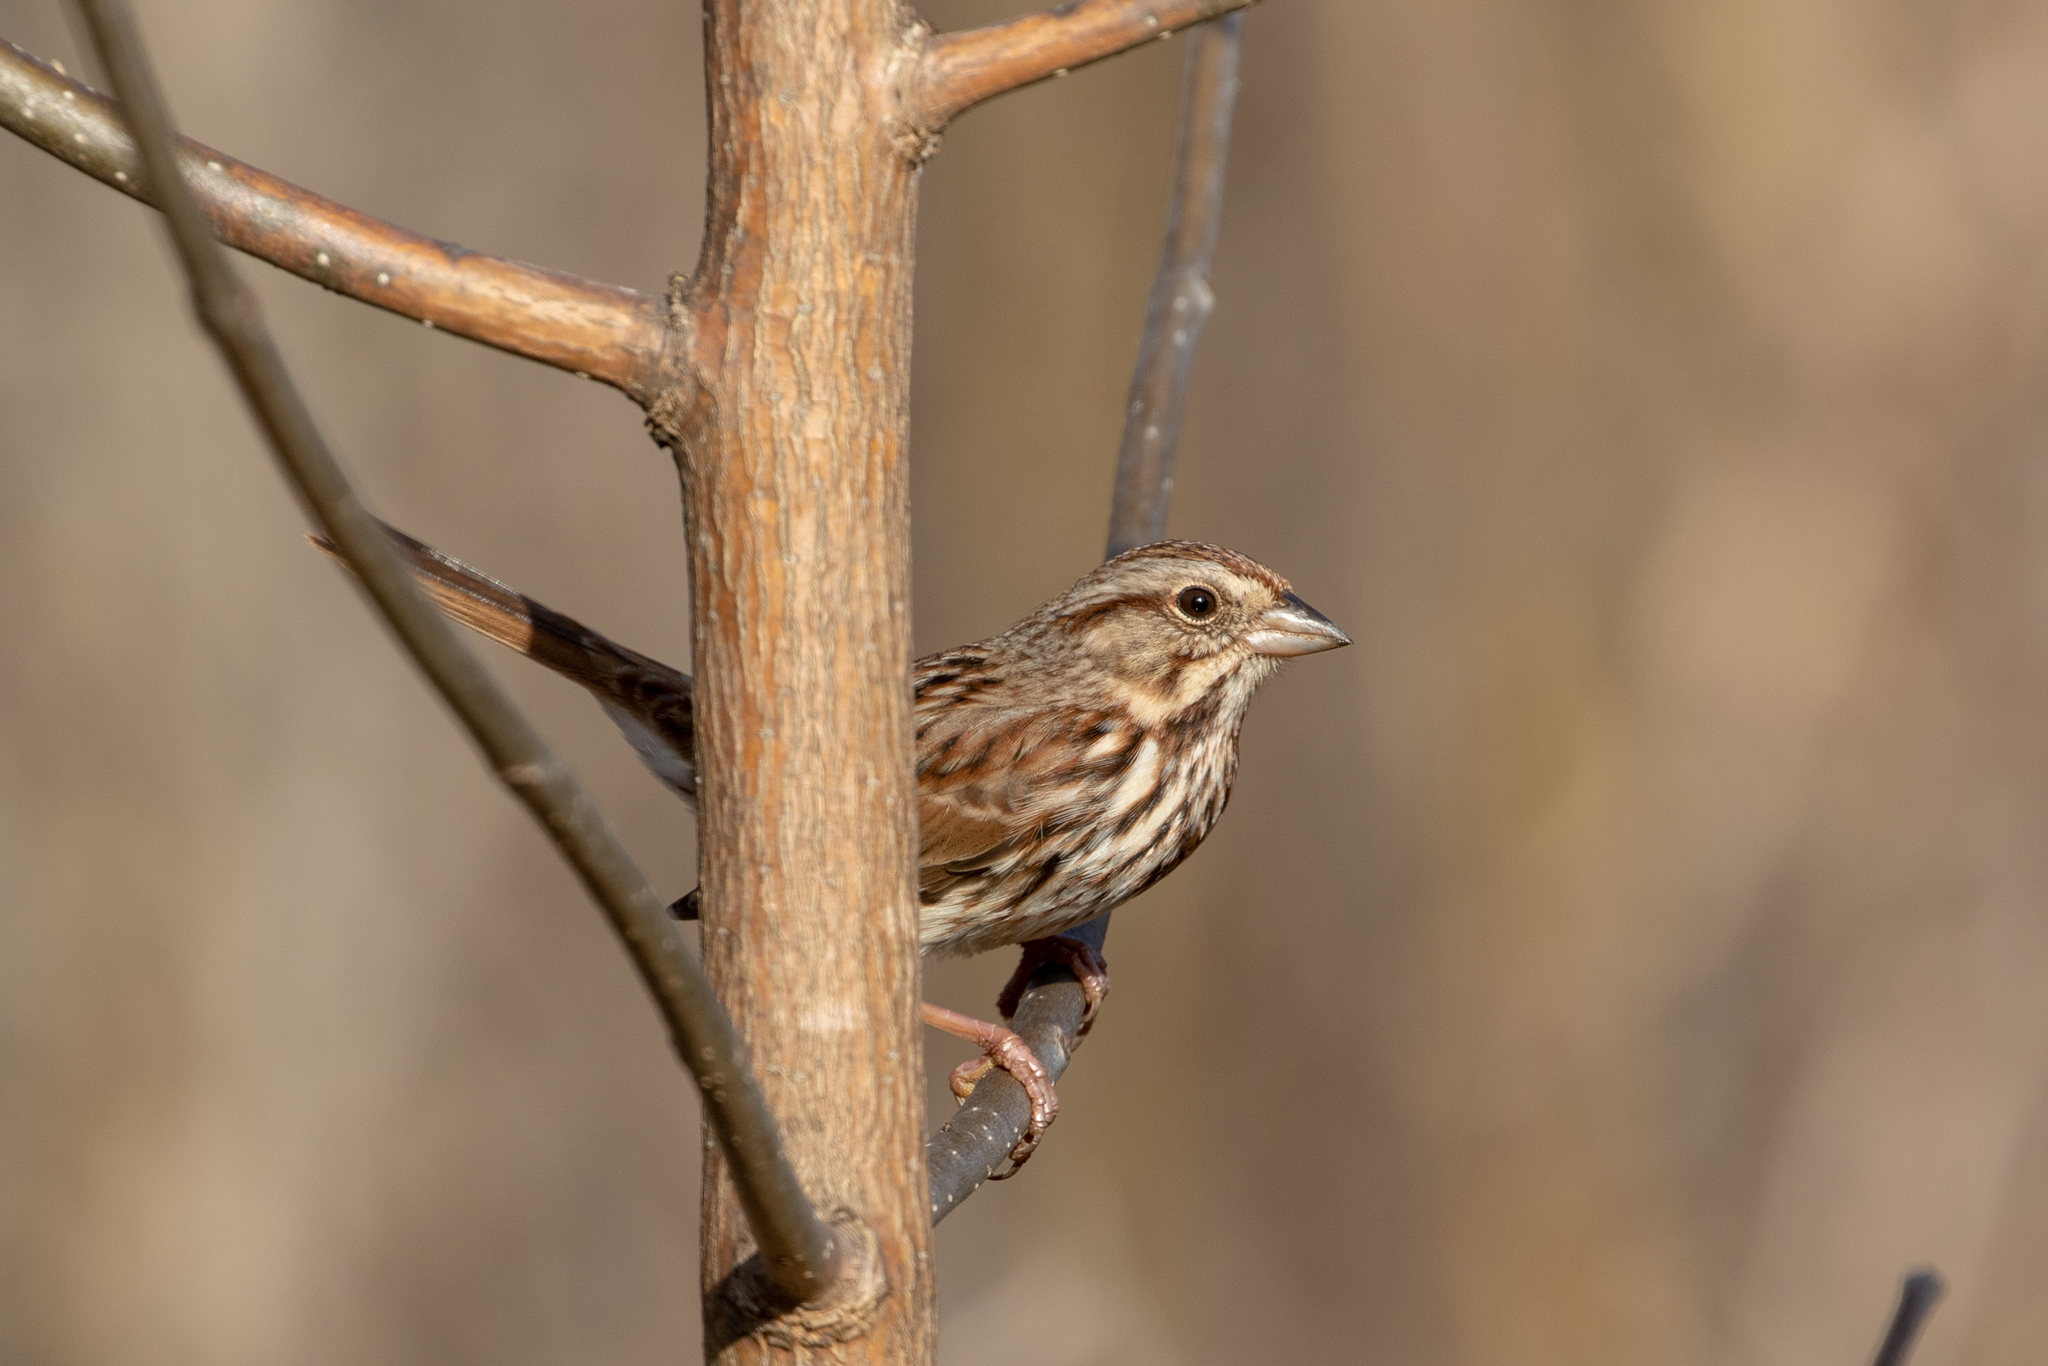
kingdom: Animalia
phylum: Chordata
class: Aves
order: Passeriformes
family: Passerellidae
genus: Melospiza
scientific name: Melospiza melodia
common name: Song sparrow
